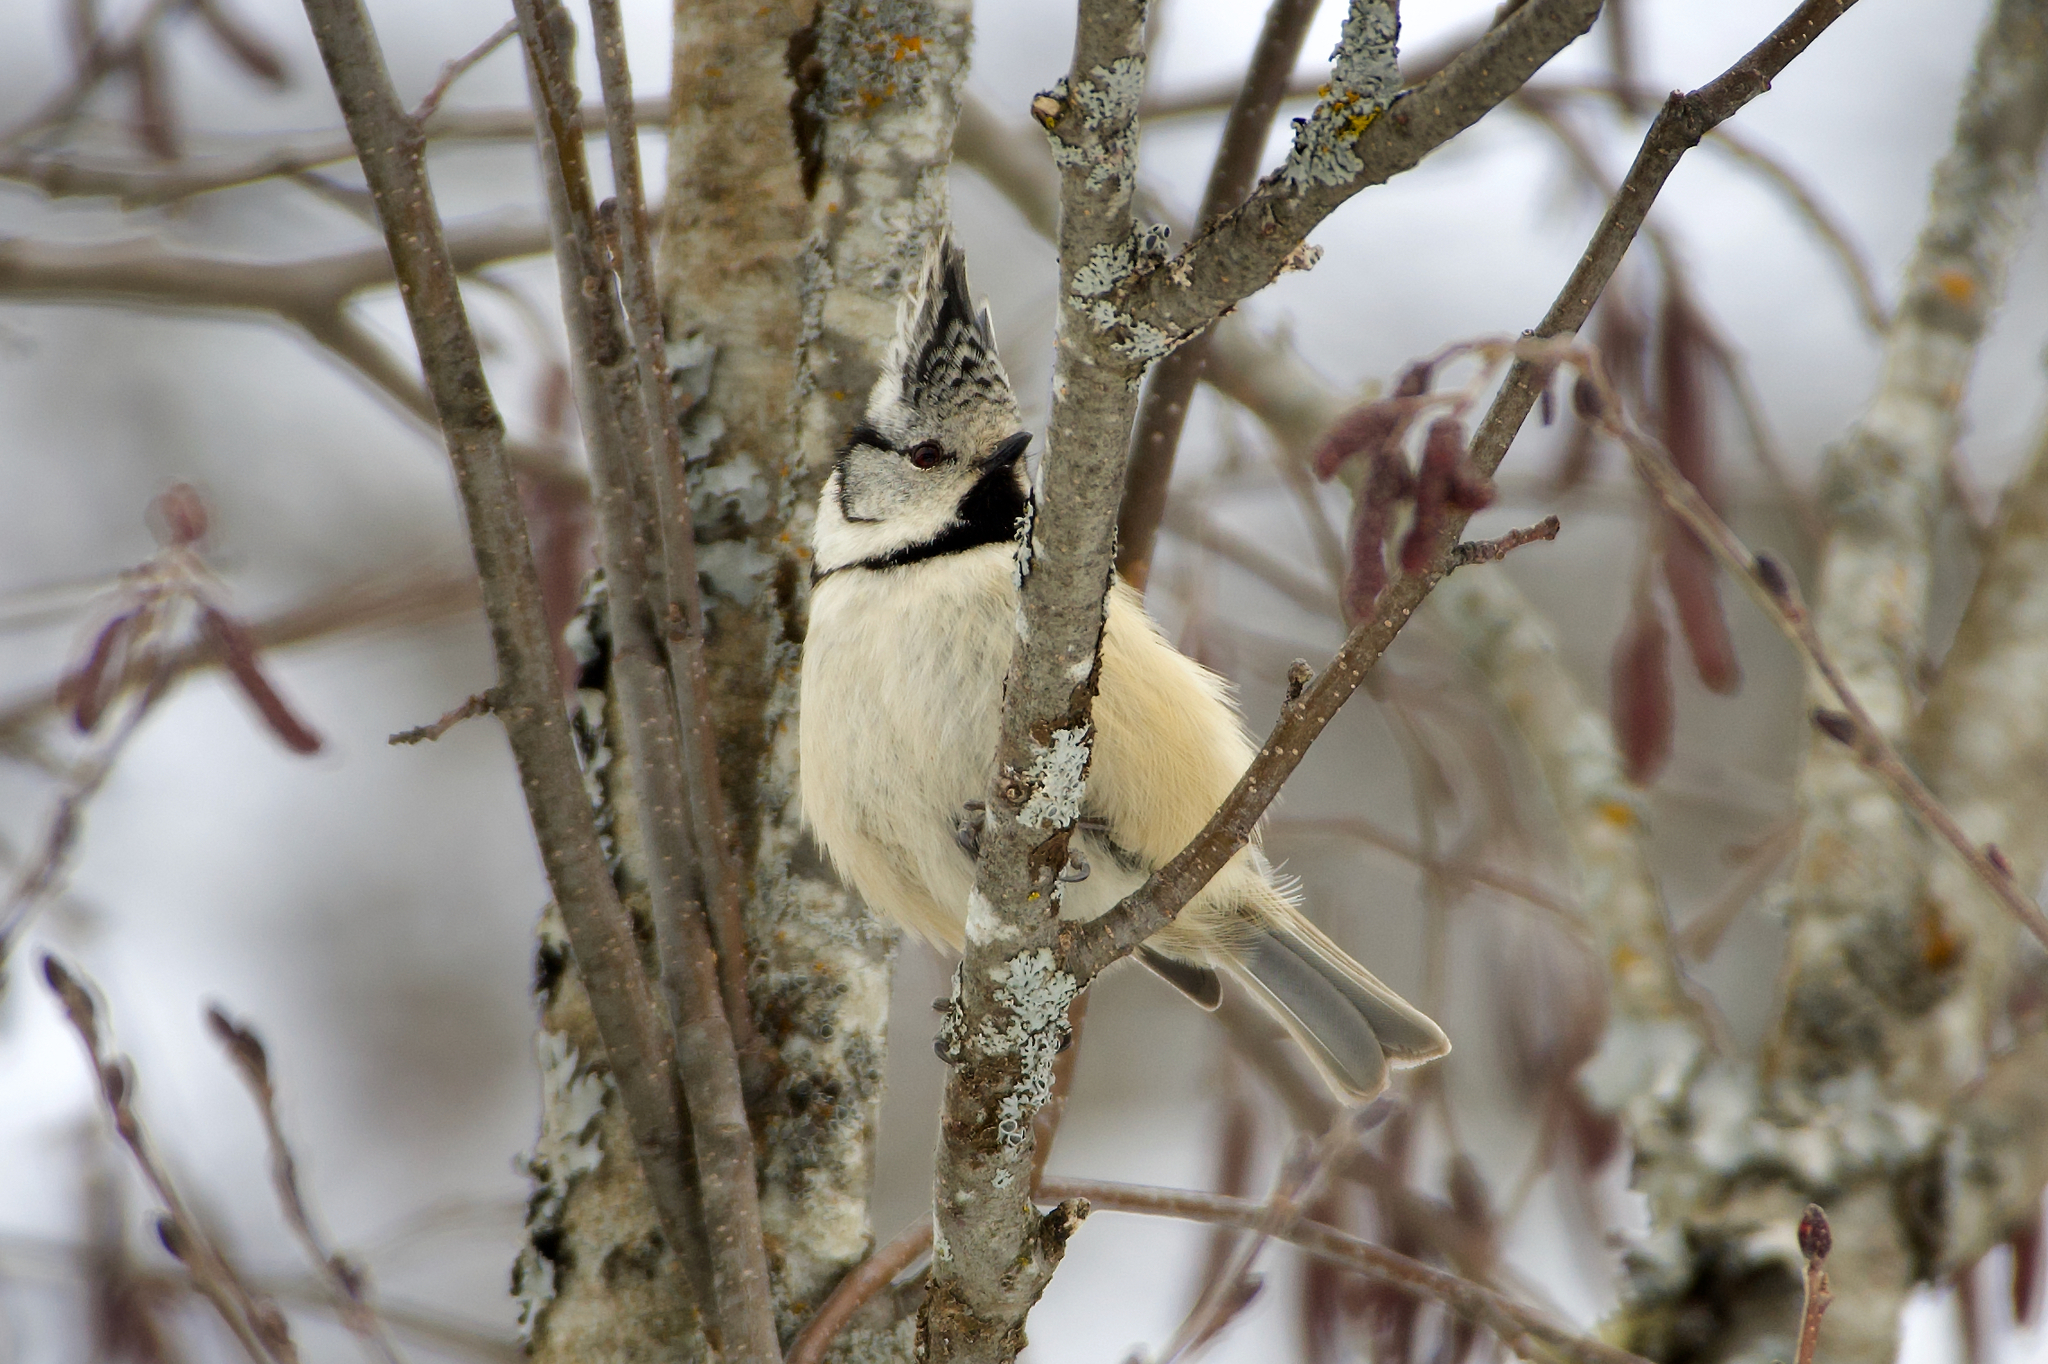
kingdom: Animalia
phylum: Chordata
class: Aves
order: Passeriformes
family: Paridae
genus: Lophophanes
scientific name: Lophophanes cristatus
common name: European crested tit
